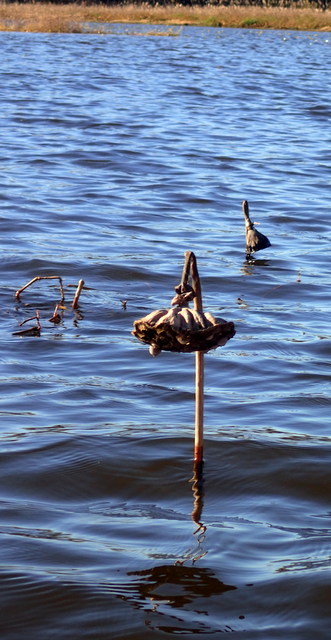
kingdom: Plantae
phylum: Tracheophyta
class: Magnoliopsida
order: Proteales
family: Nelumbonaceae
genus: Nelumbo
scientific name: Nelumbo lutea
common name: American lotus
